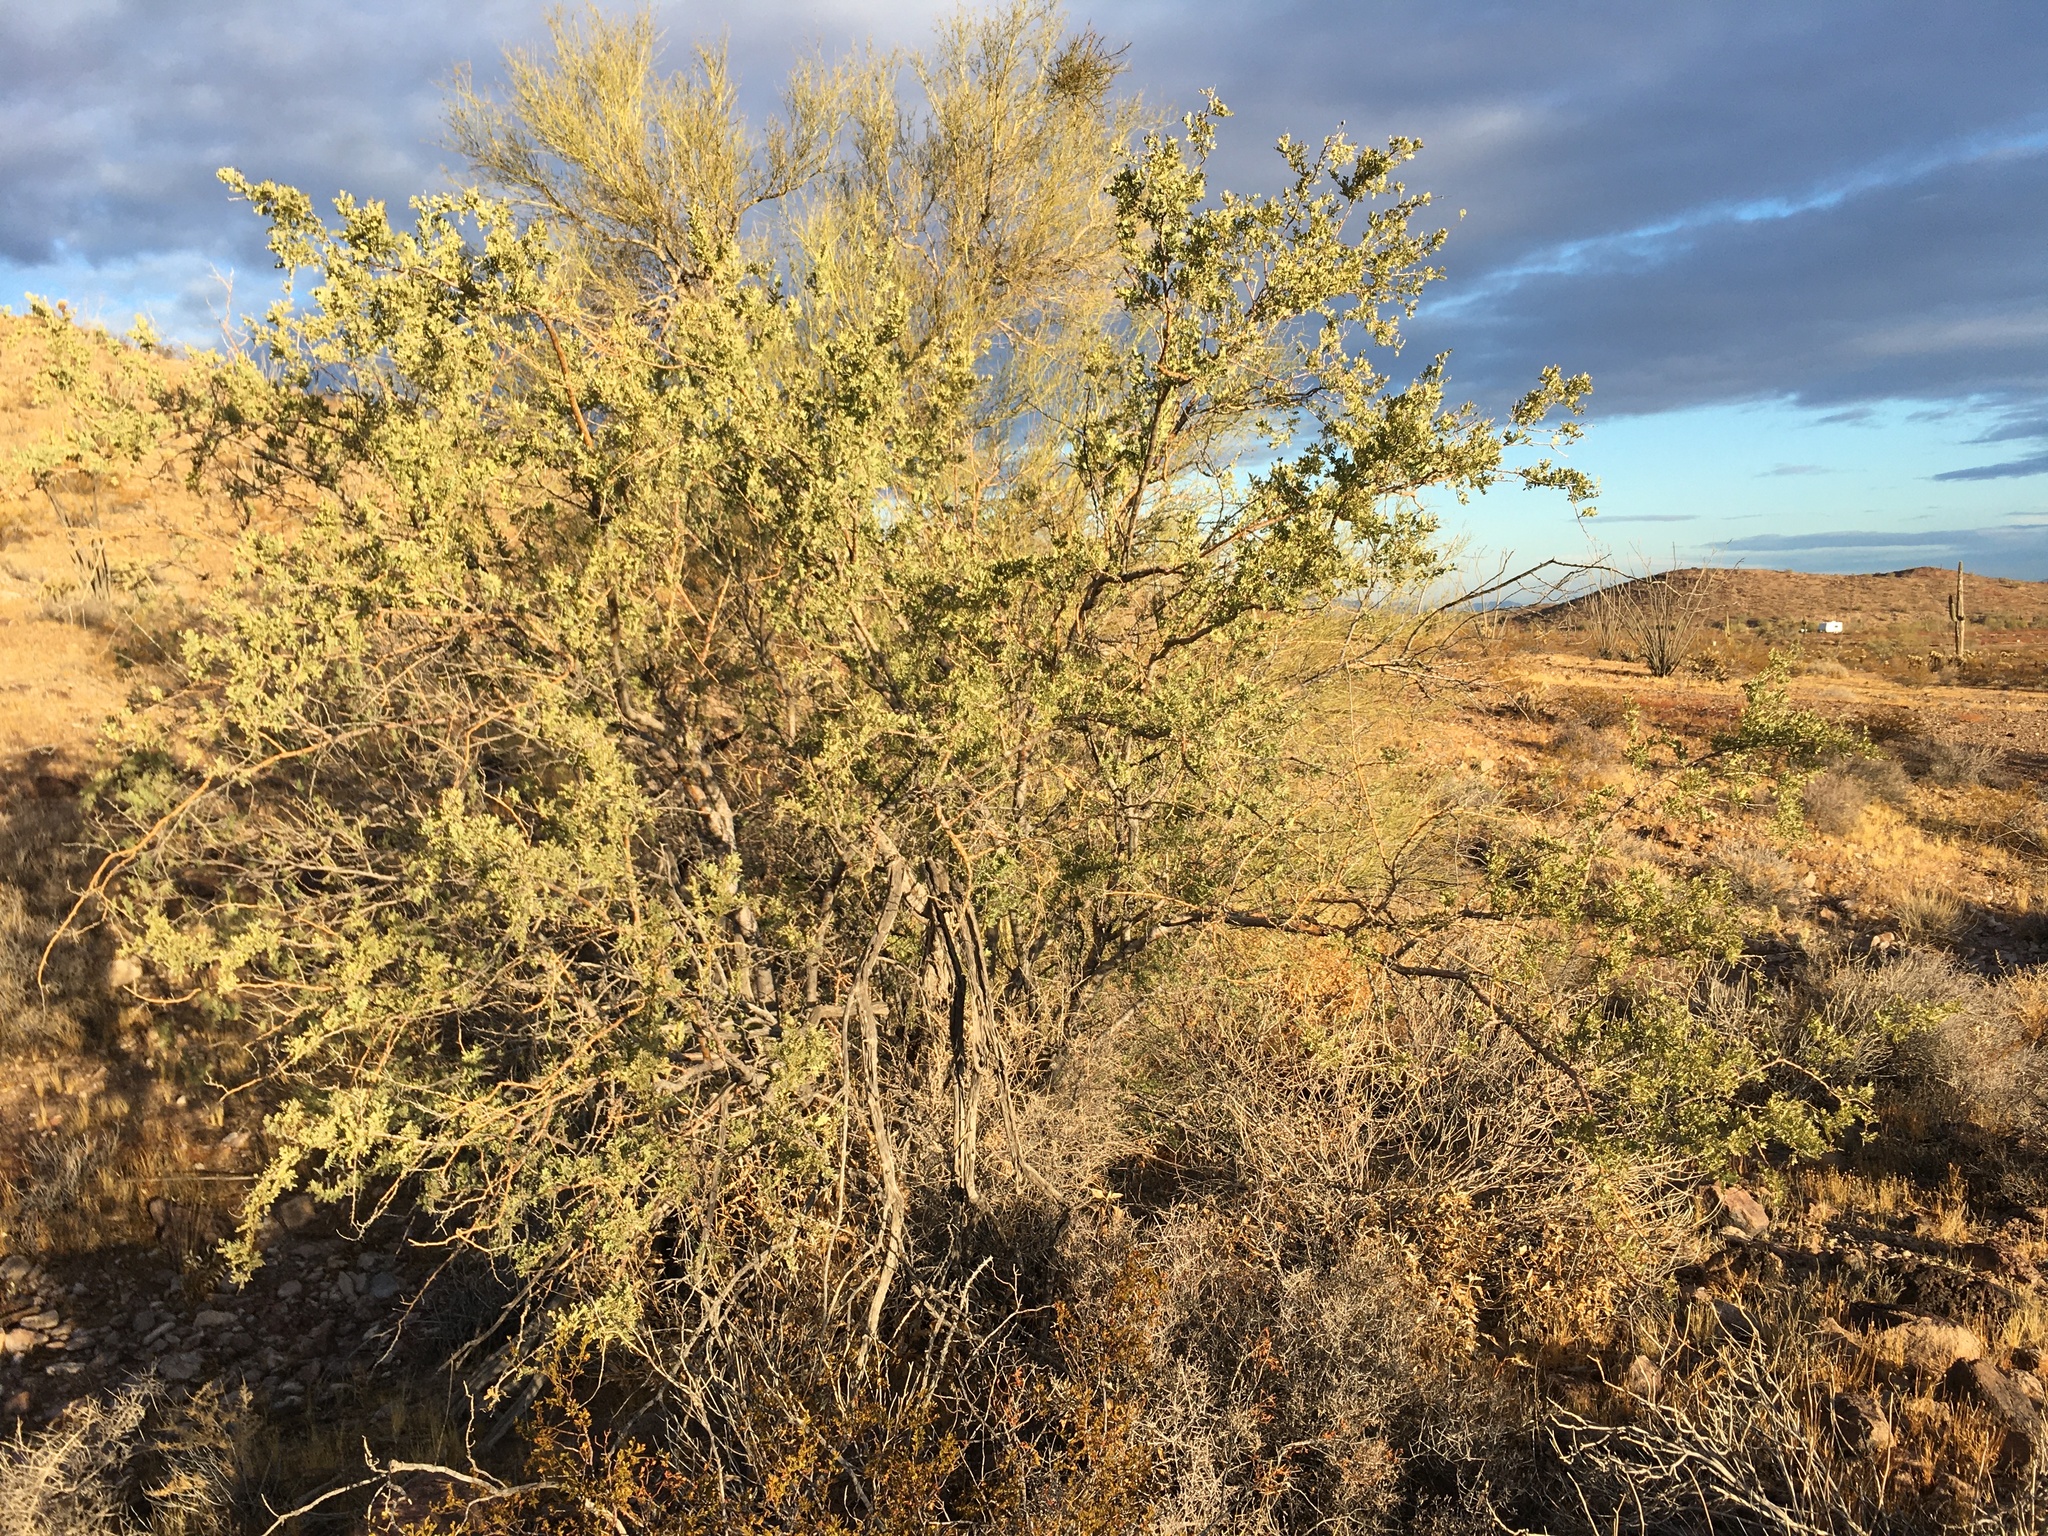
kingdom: Plantae
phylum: Tracheophyta
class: Magnoliopsida
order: Fabales
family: Fabaceae
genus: Olneya
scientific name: Olneya tesota
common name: Desert ironwood
